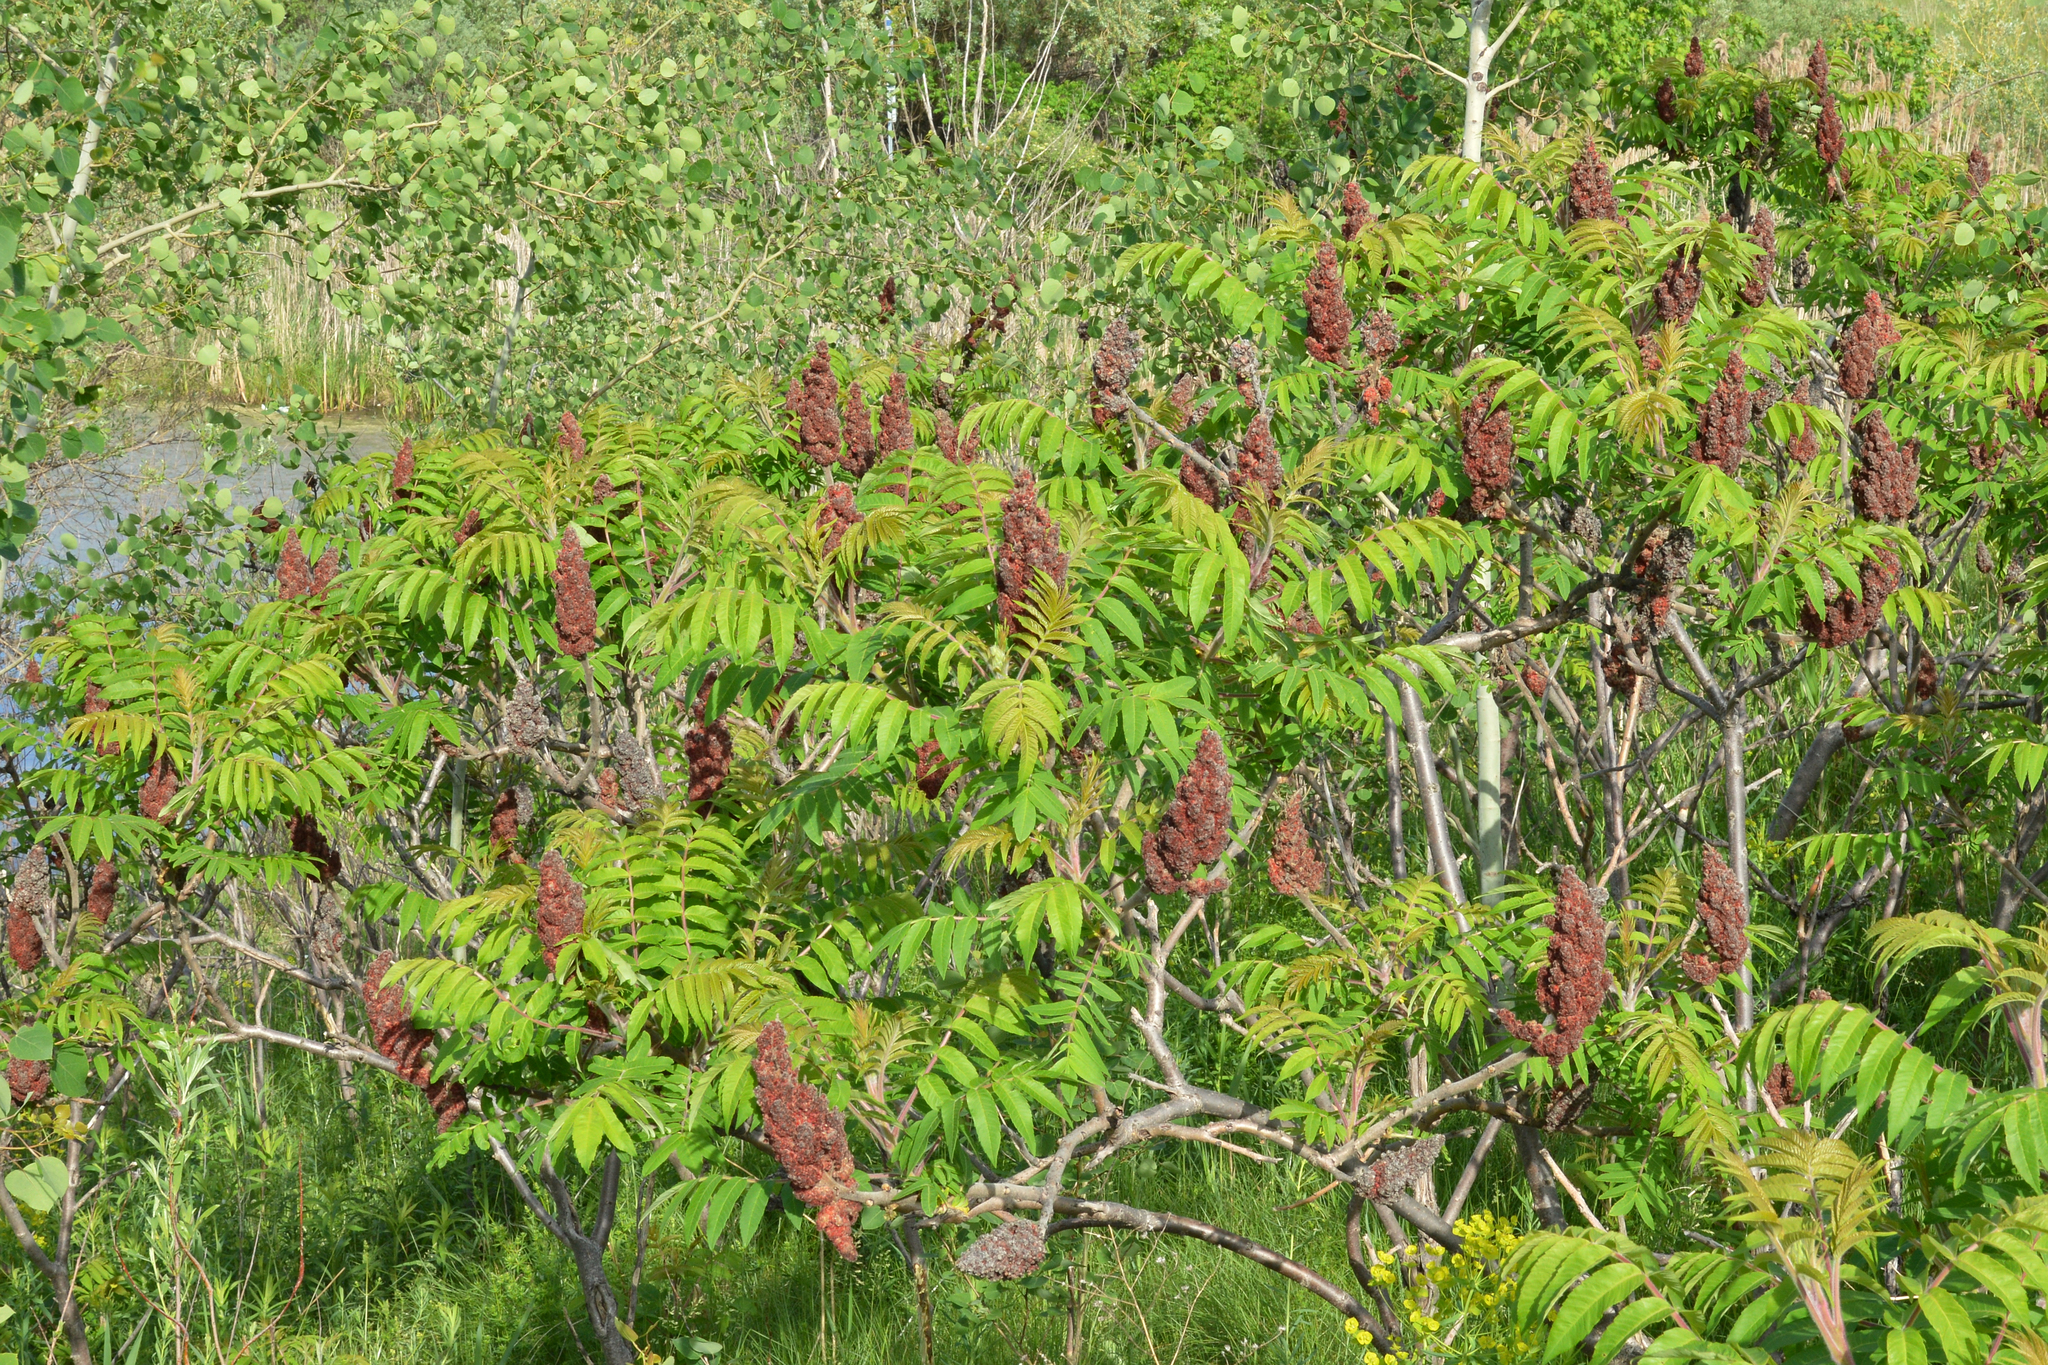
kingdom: Plantae
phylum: Tracheophyta
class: Magnoliopsida
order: Sapindales
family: Anacardiaceae
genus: Rhus
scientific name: Rhus typhina
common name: Staghorn sumac
